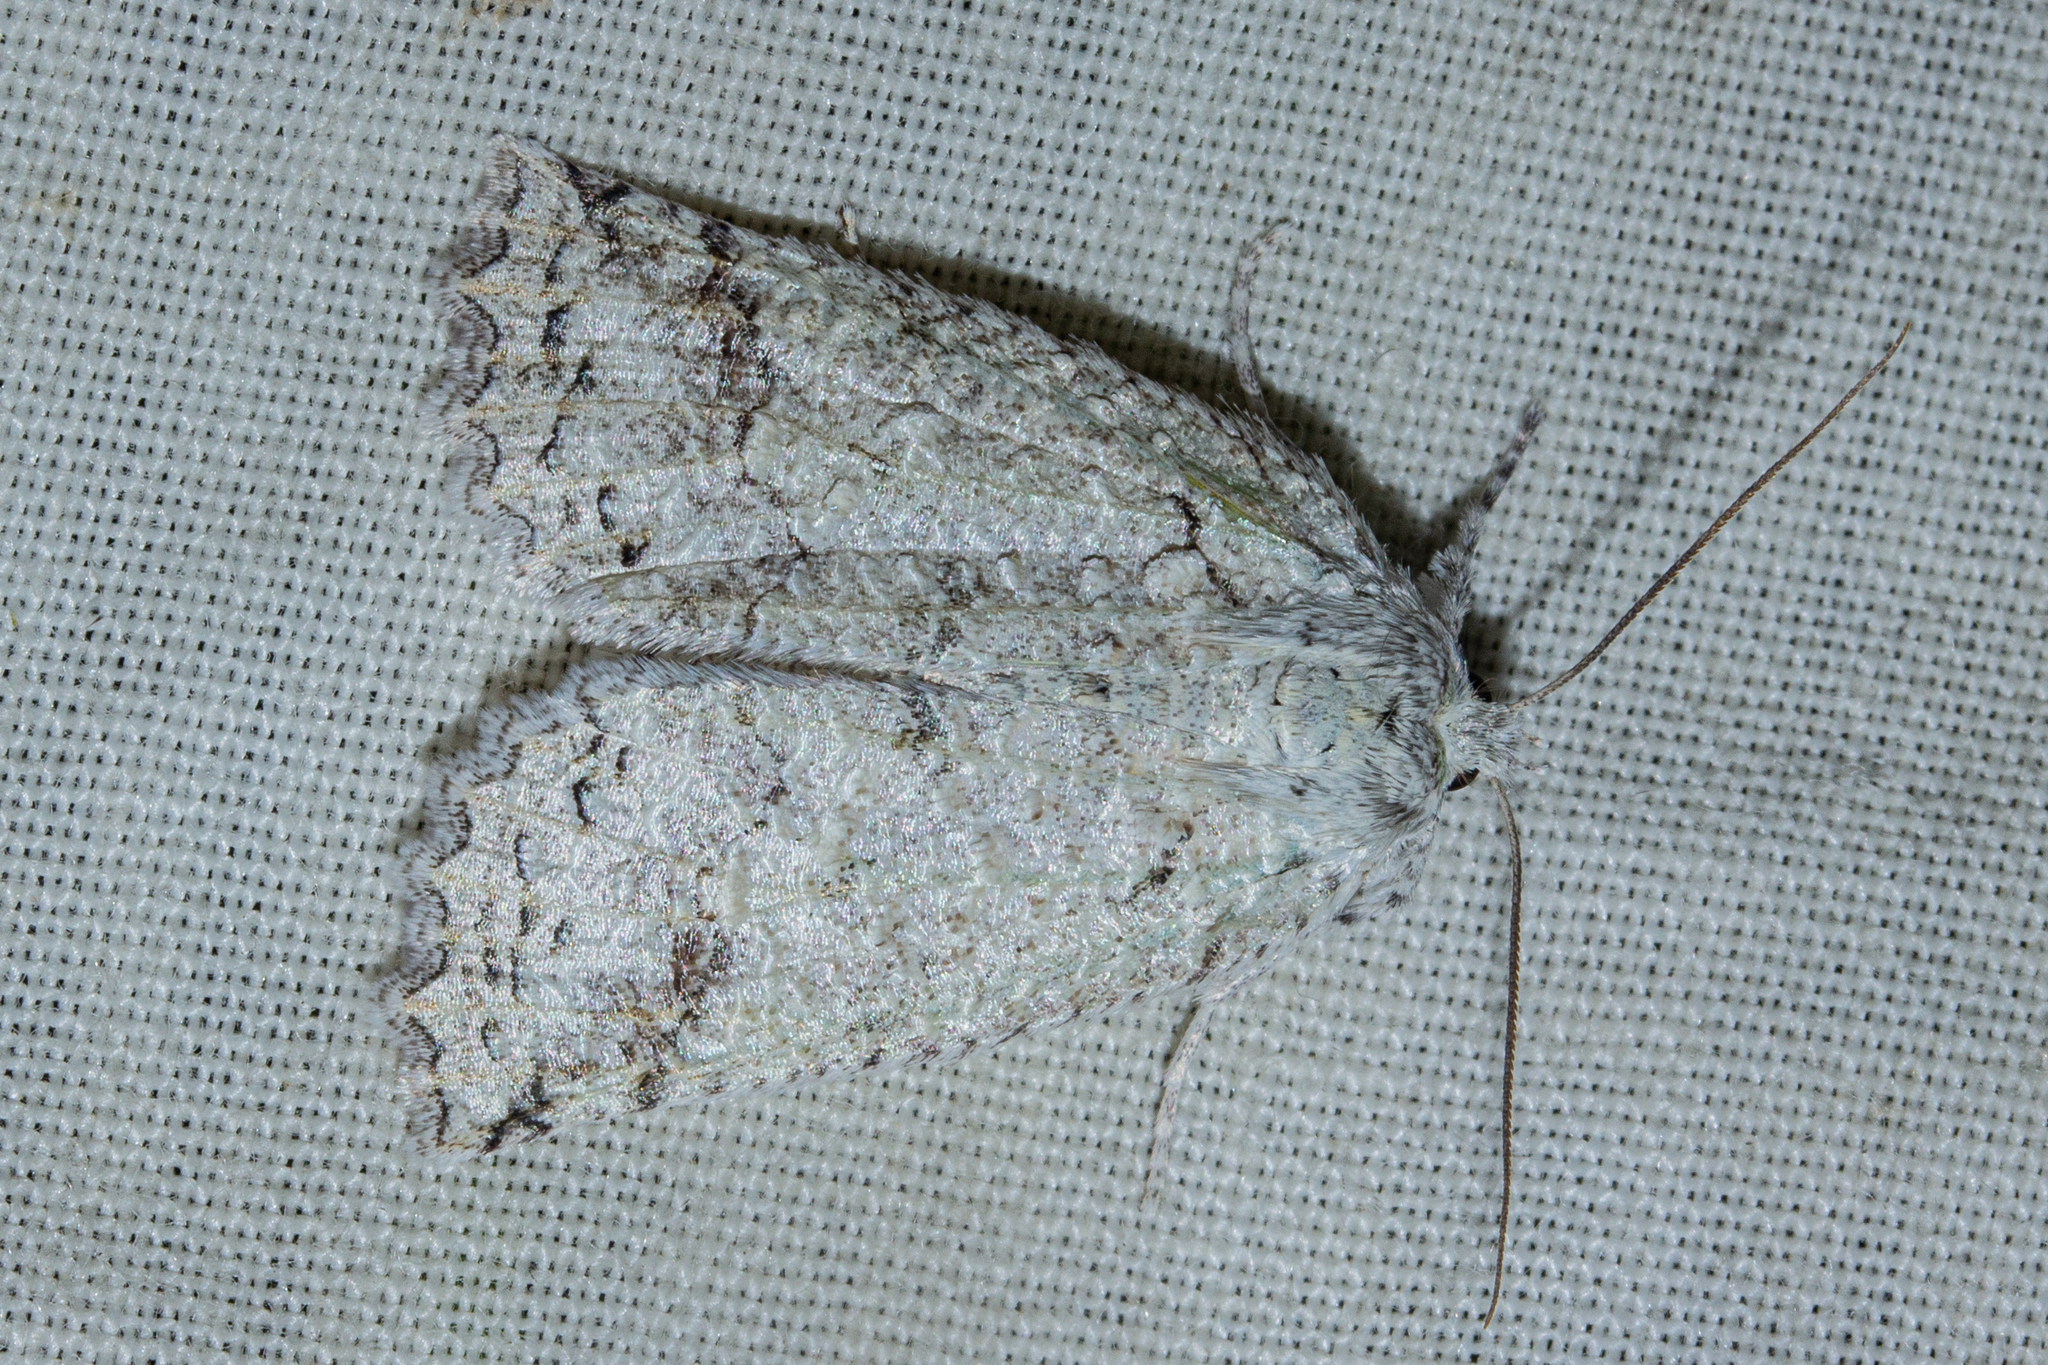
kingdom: Animalia
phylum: Arthropoda
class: Insecta
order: Lepidoptera
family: Geometridae
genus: Declana
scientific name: Declana floccosa
